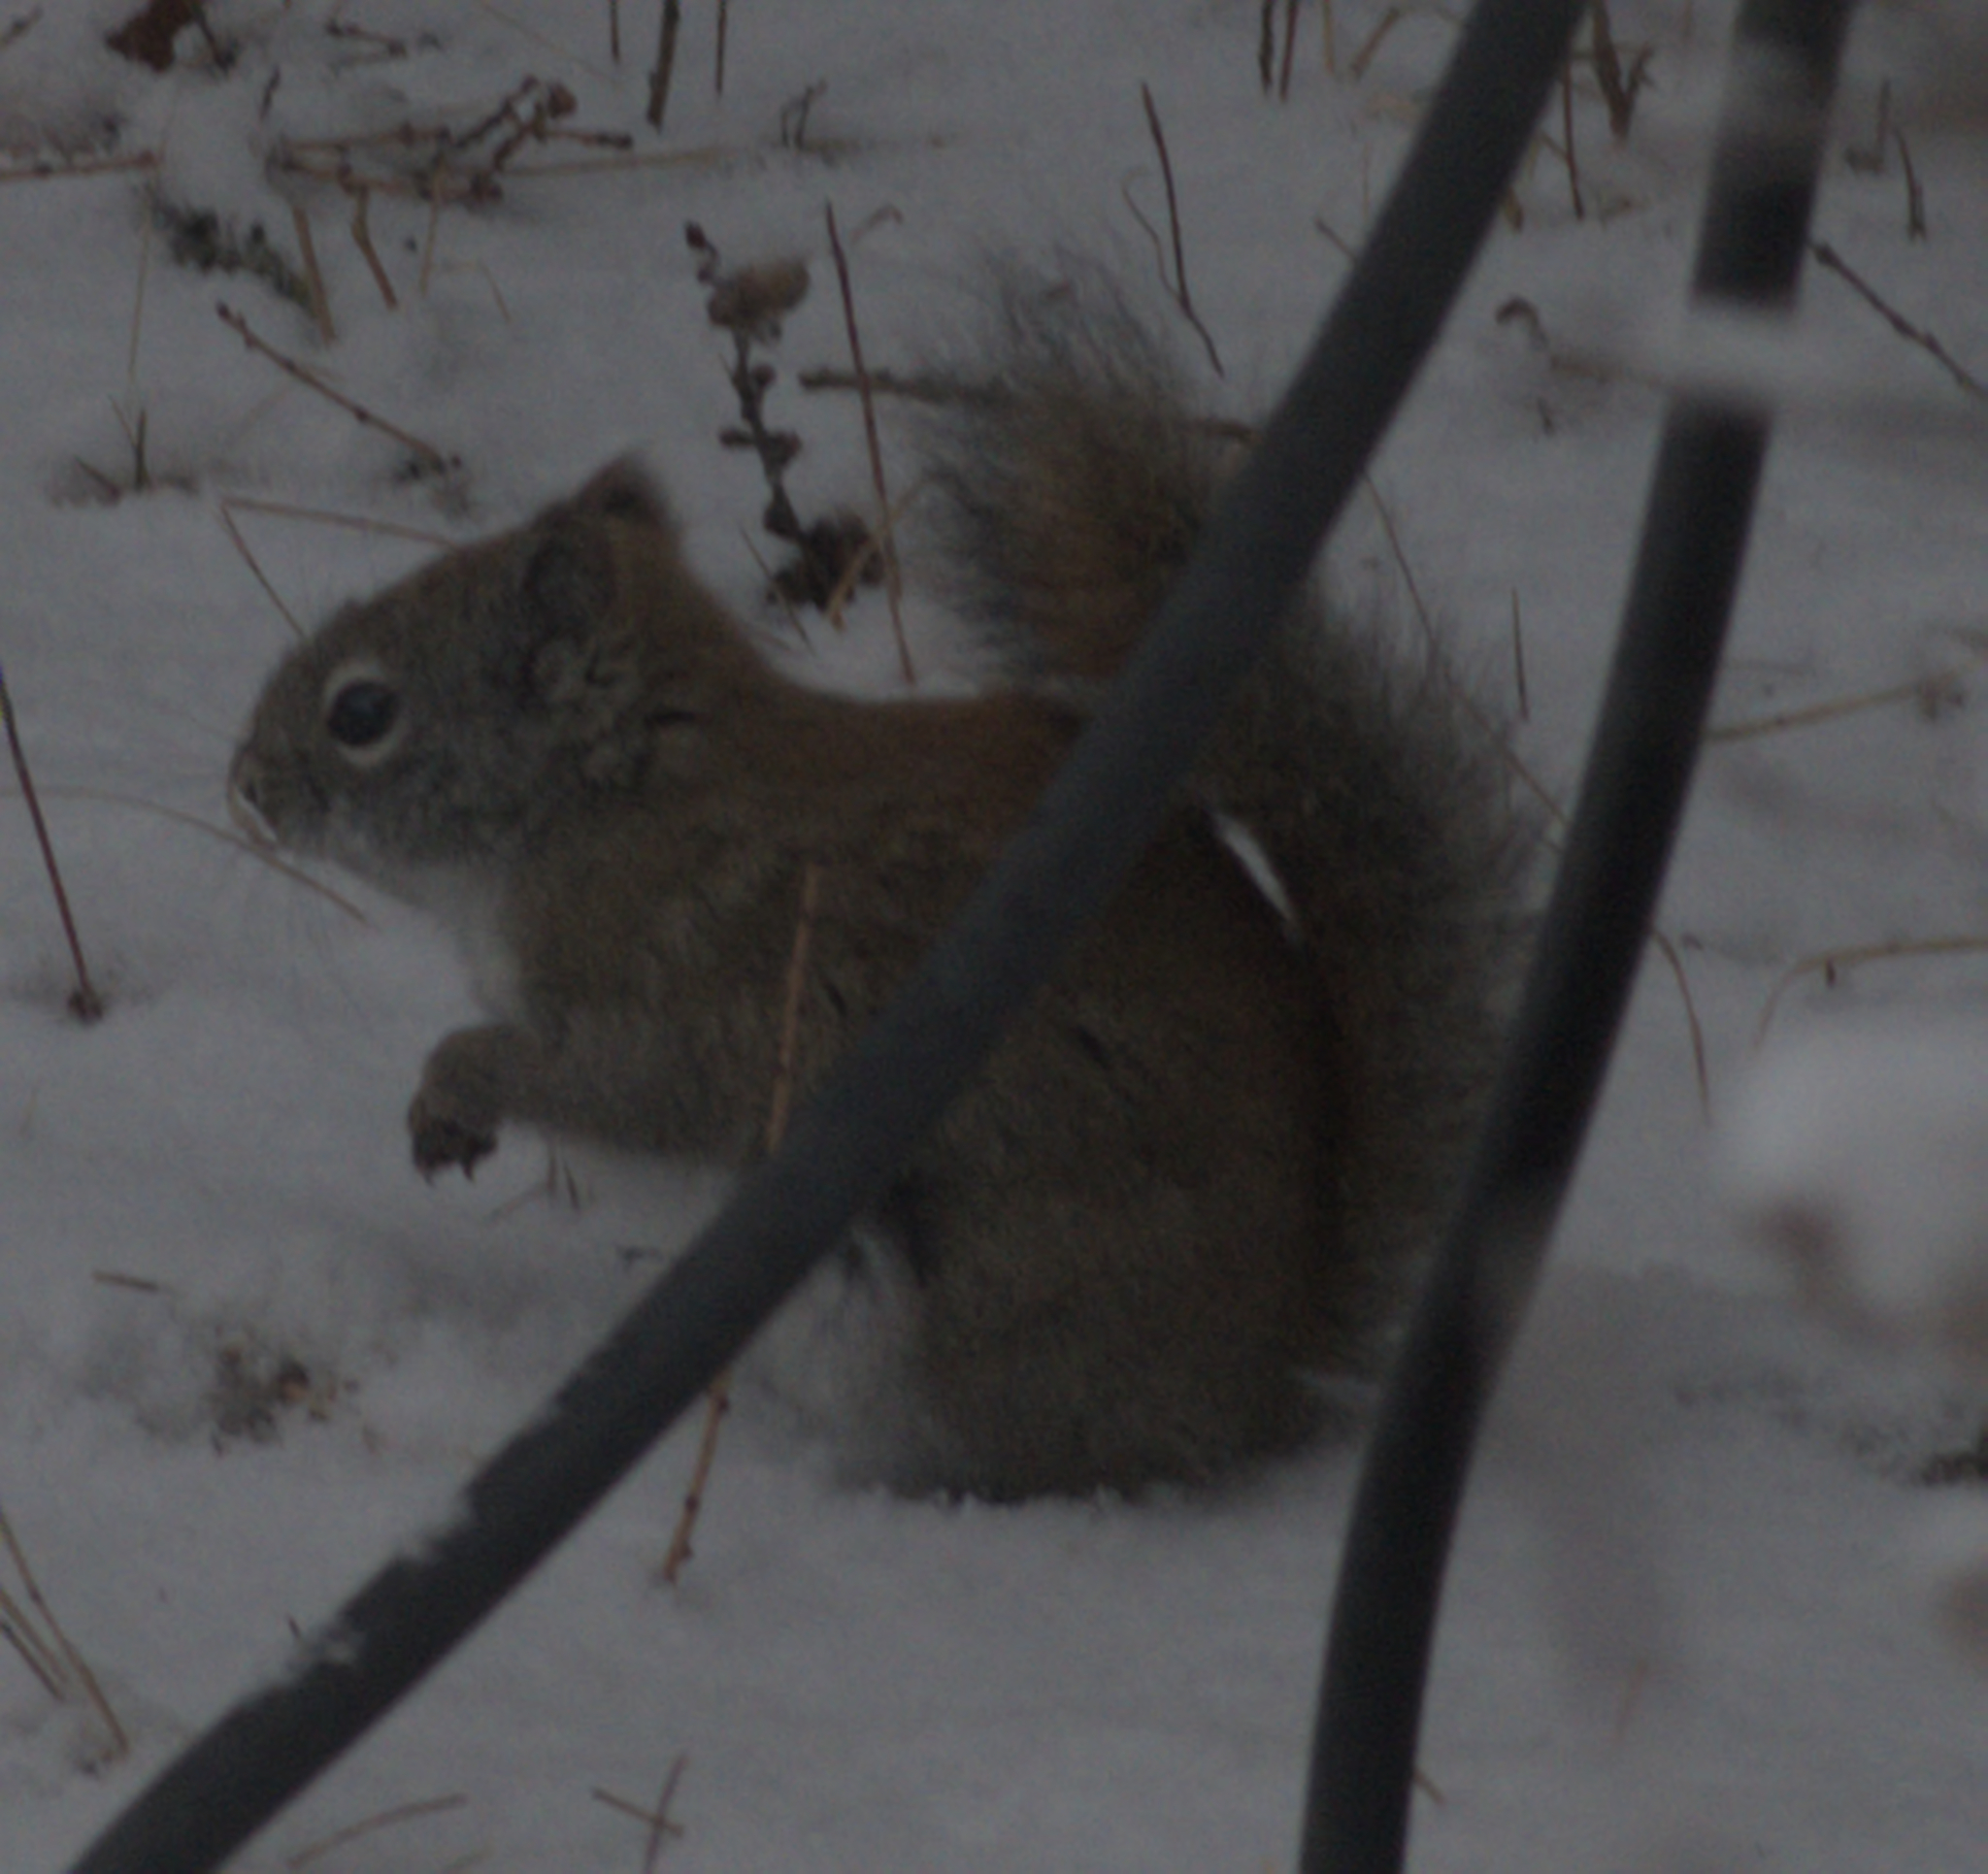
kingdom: Animalia
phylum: Chordata
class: Mammalia
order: Rodentia
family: Sciuridae
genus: Tamiasciurus
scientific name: Tamiasciurus hudsonicus
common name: Red squirrel
